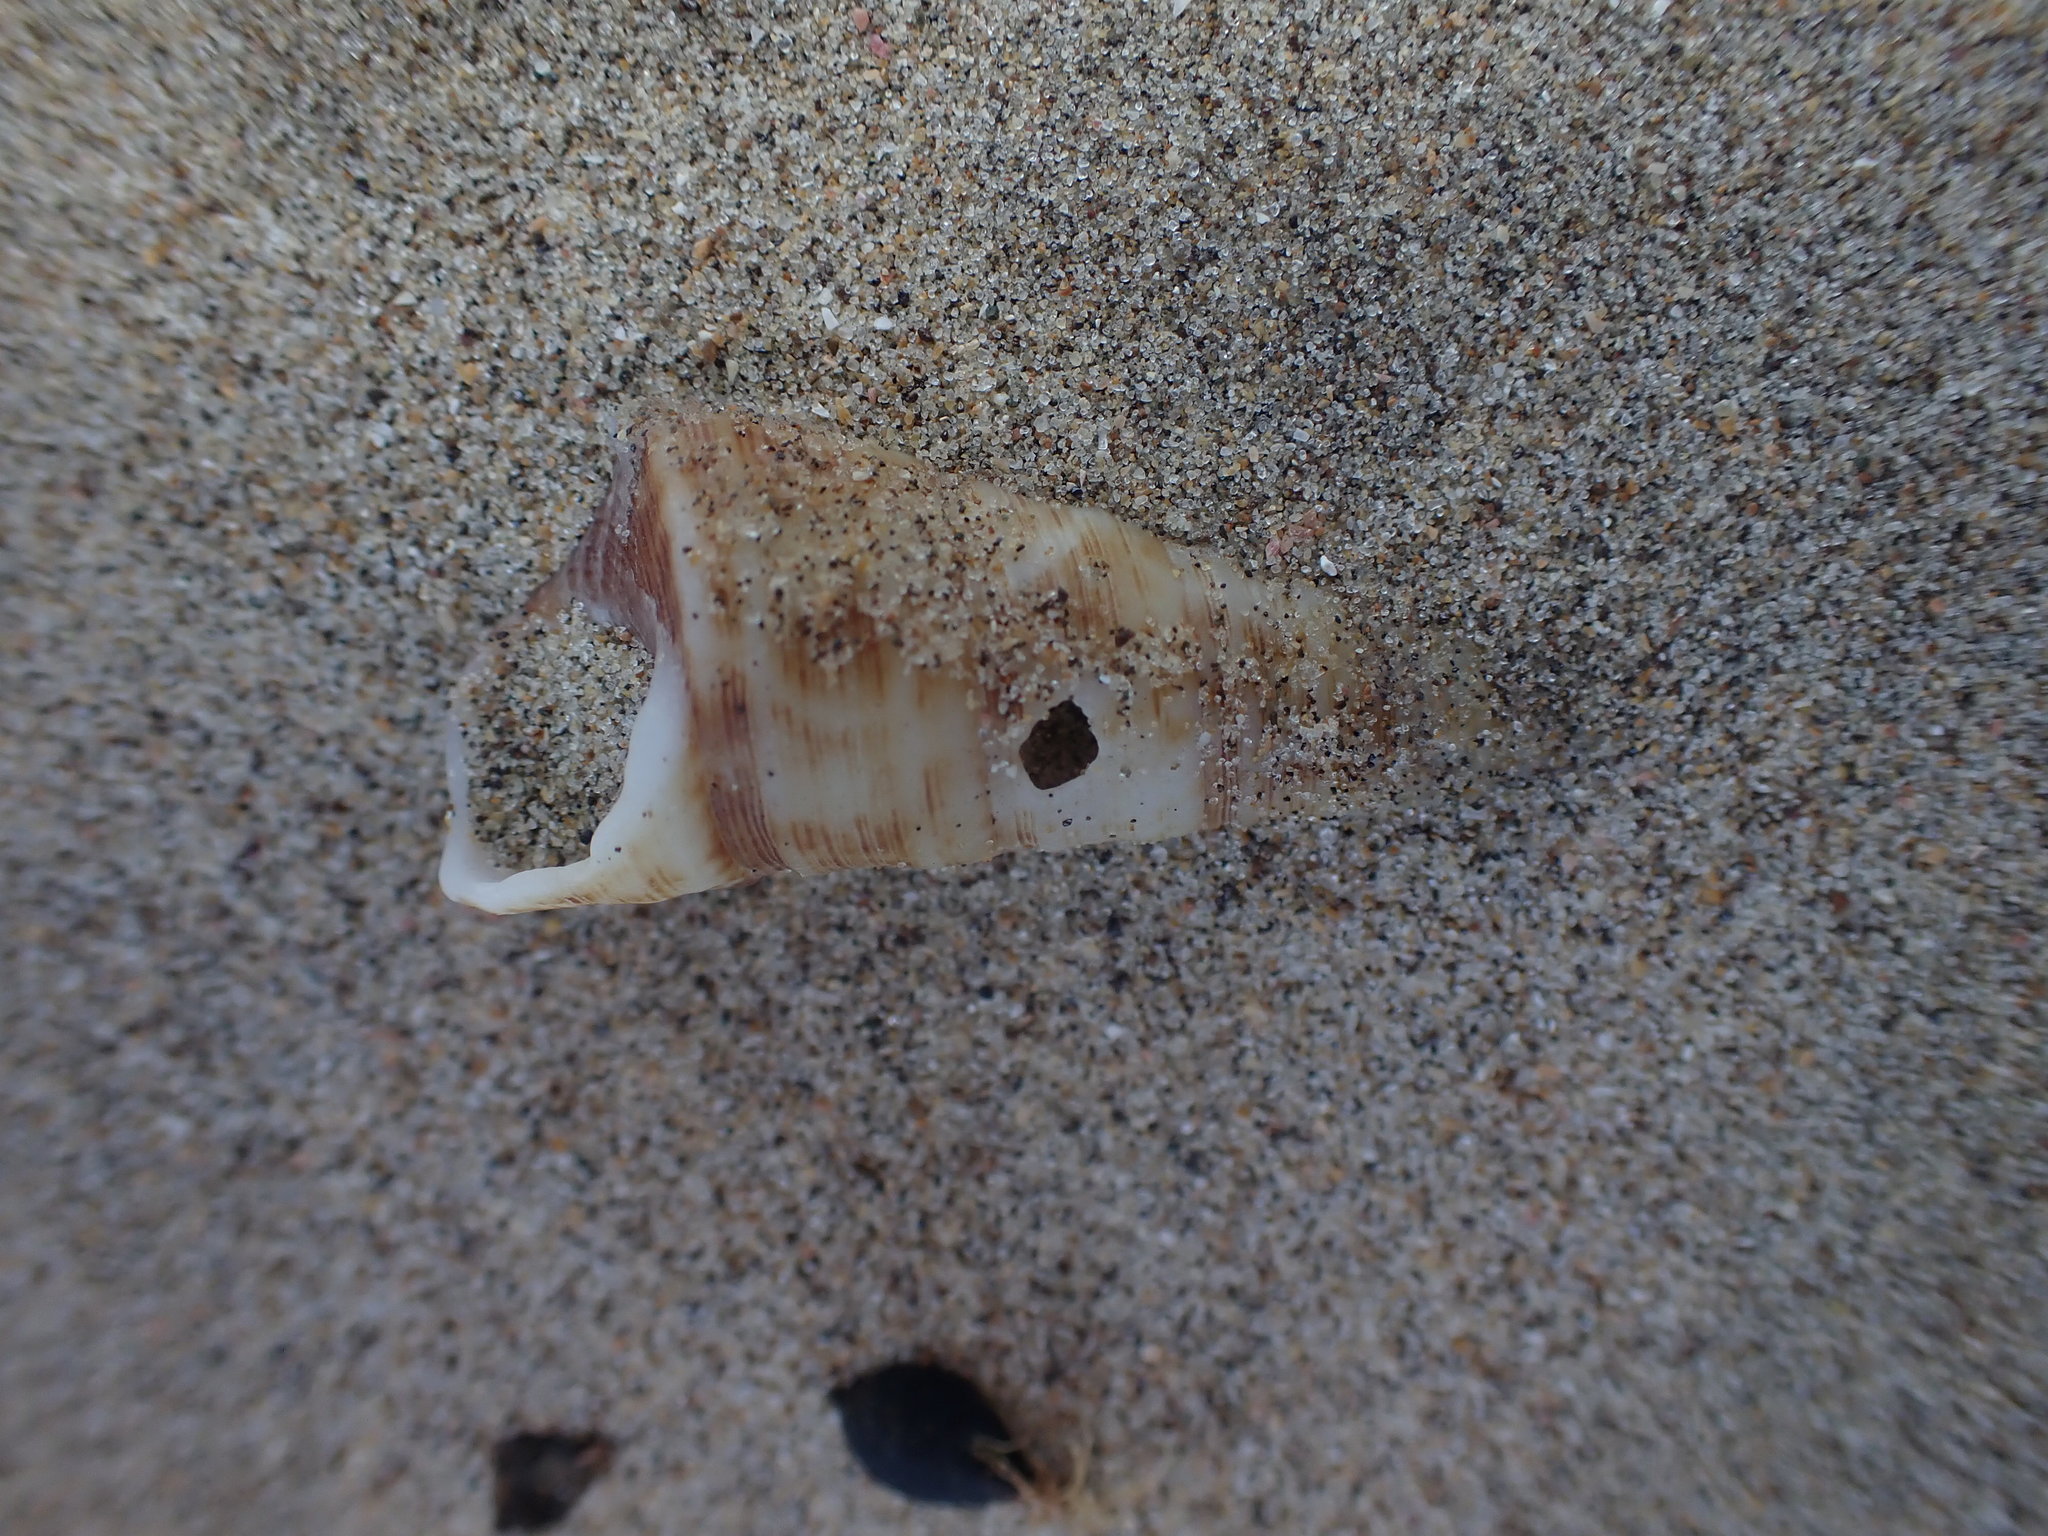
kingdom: Animalia
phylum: Mollusca
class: Gastropoda
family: Turritellidae
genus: Maoricolpus
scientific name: Maoricolpus roseus
